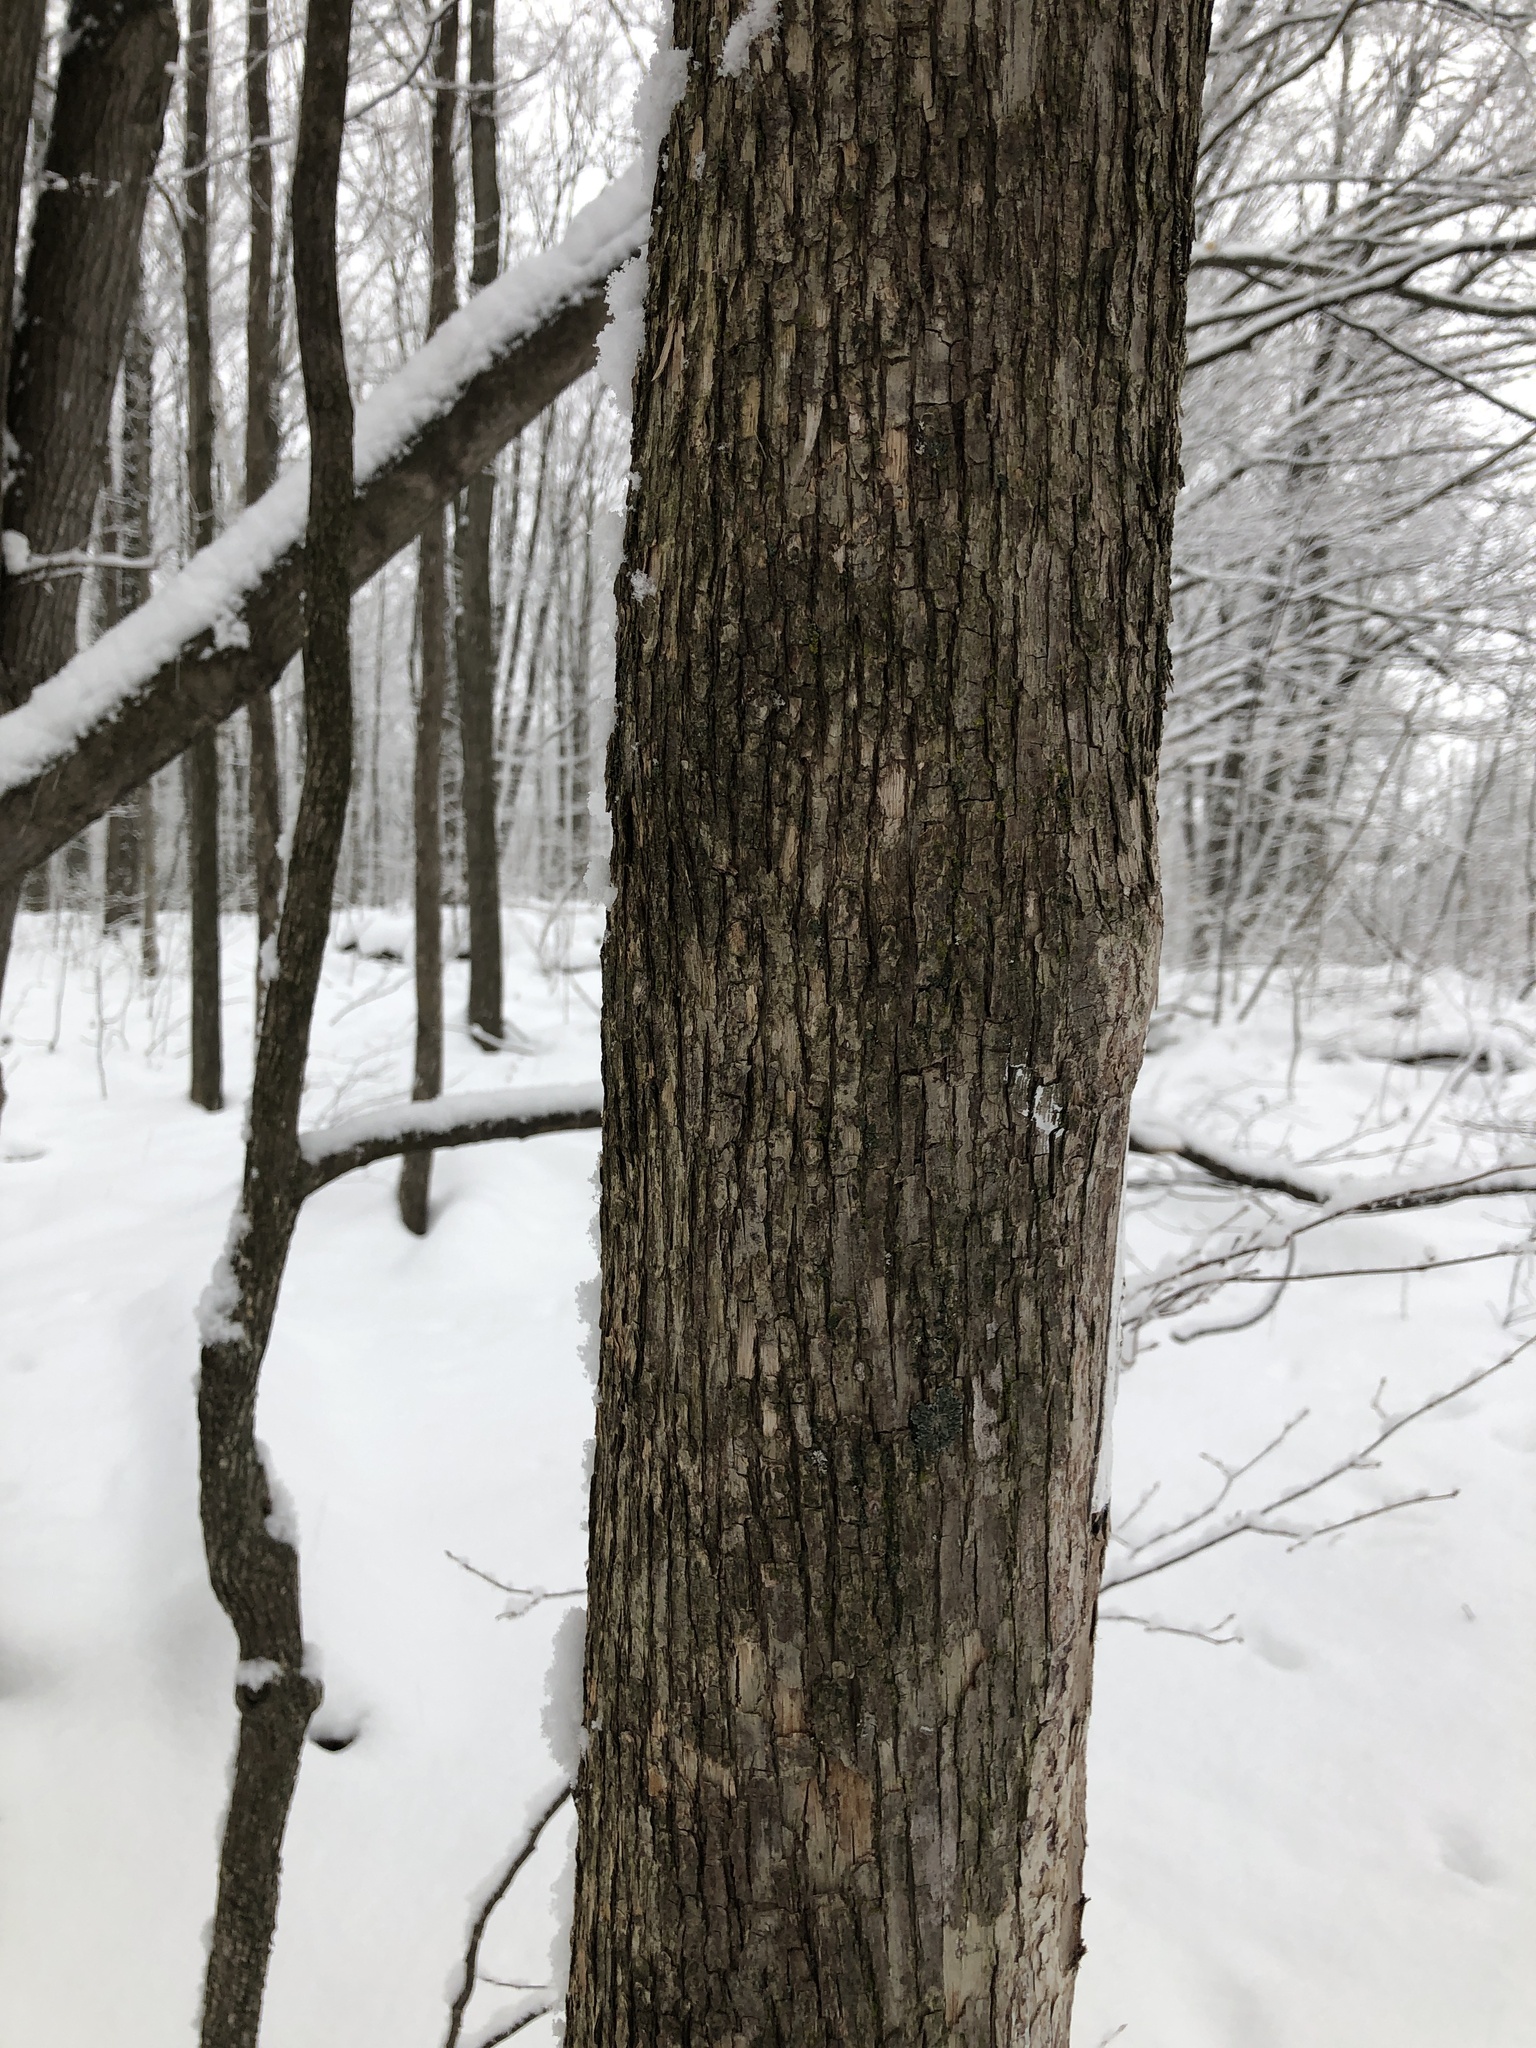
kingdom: Plantae
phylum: Tracheophyta
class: Magnoliopsida
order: Fagales
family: Betulaceae
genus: Ostrya
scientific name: Ostrya virginiana
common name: Ironwood
